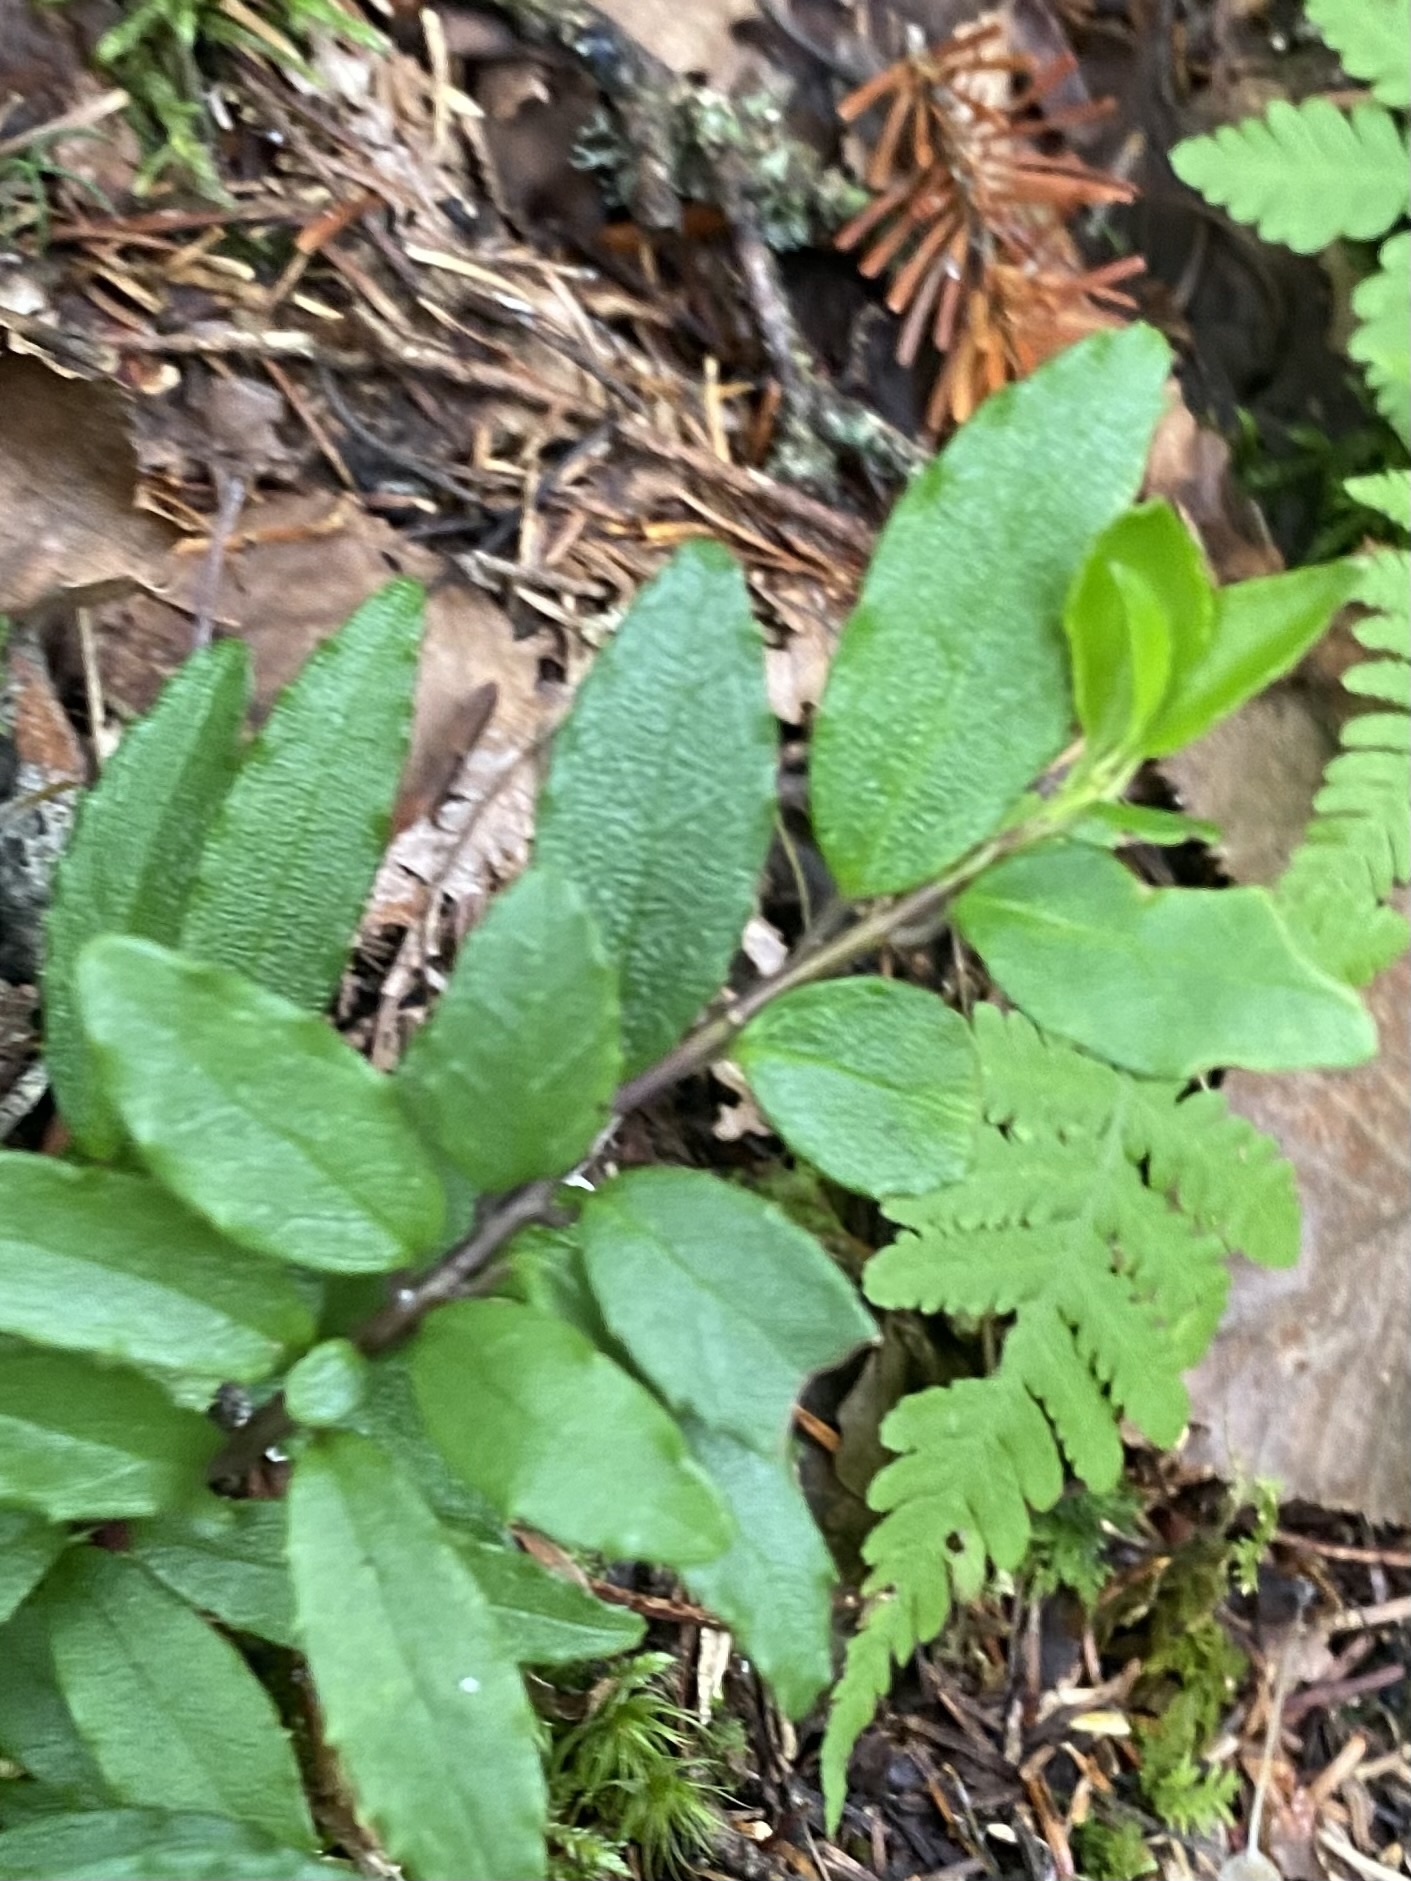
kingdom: Plantae
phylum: Tracheophyta
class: Magnoliopsida
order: Aquifoliales
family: Aquifoliaceae
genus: Ilex
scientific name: Ilex rugosa
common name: Tsuru holly
